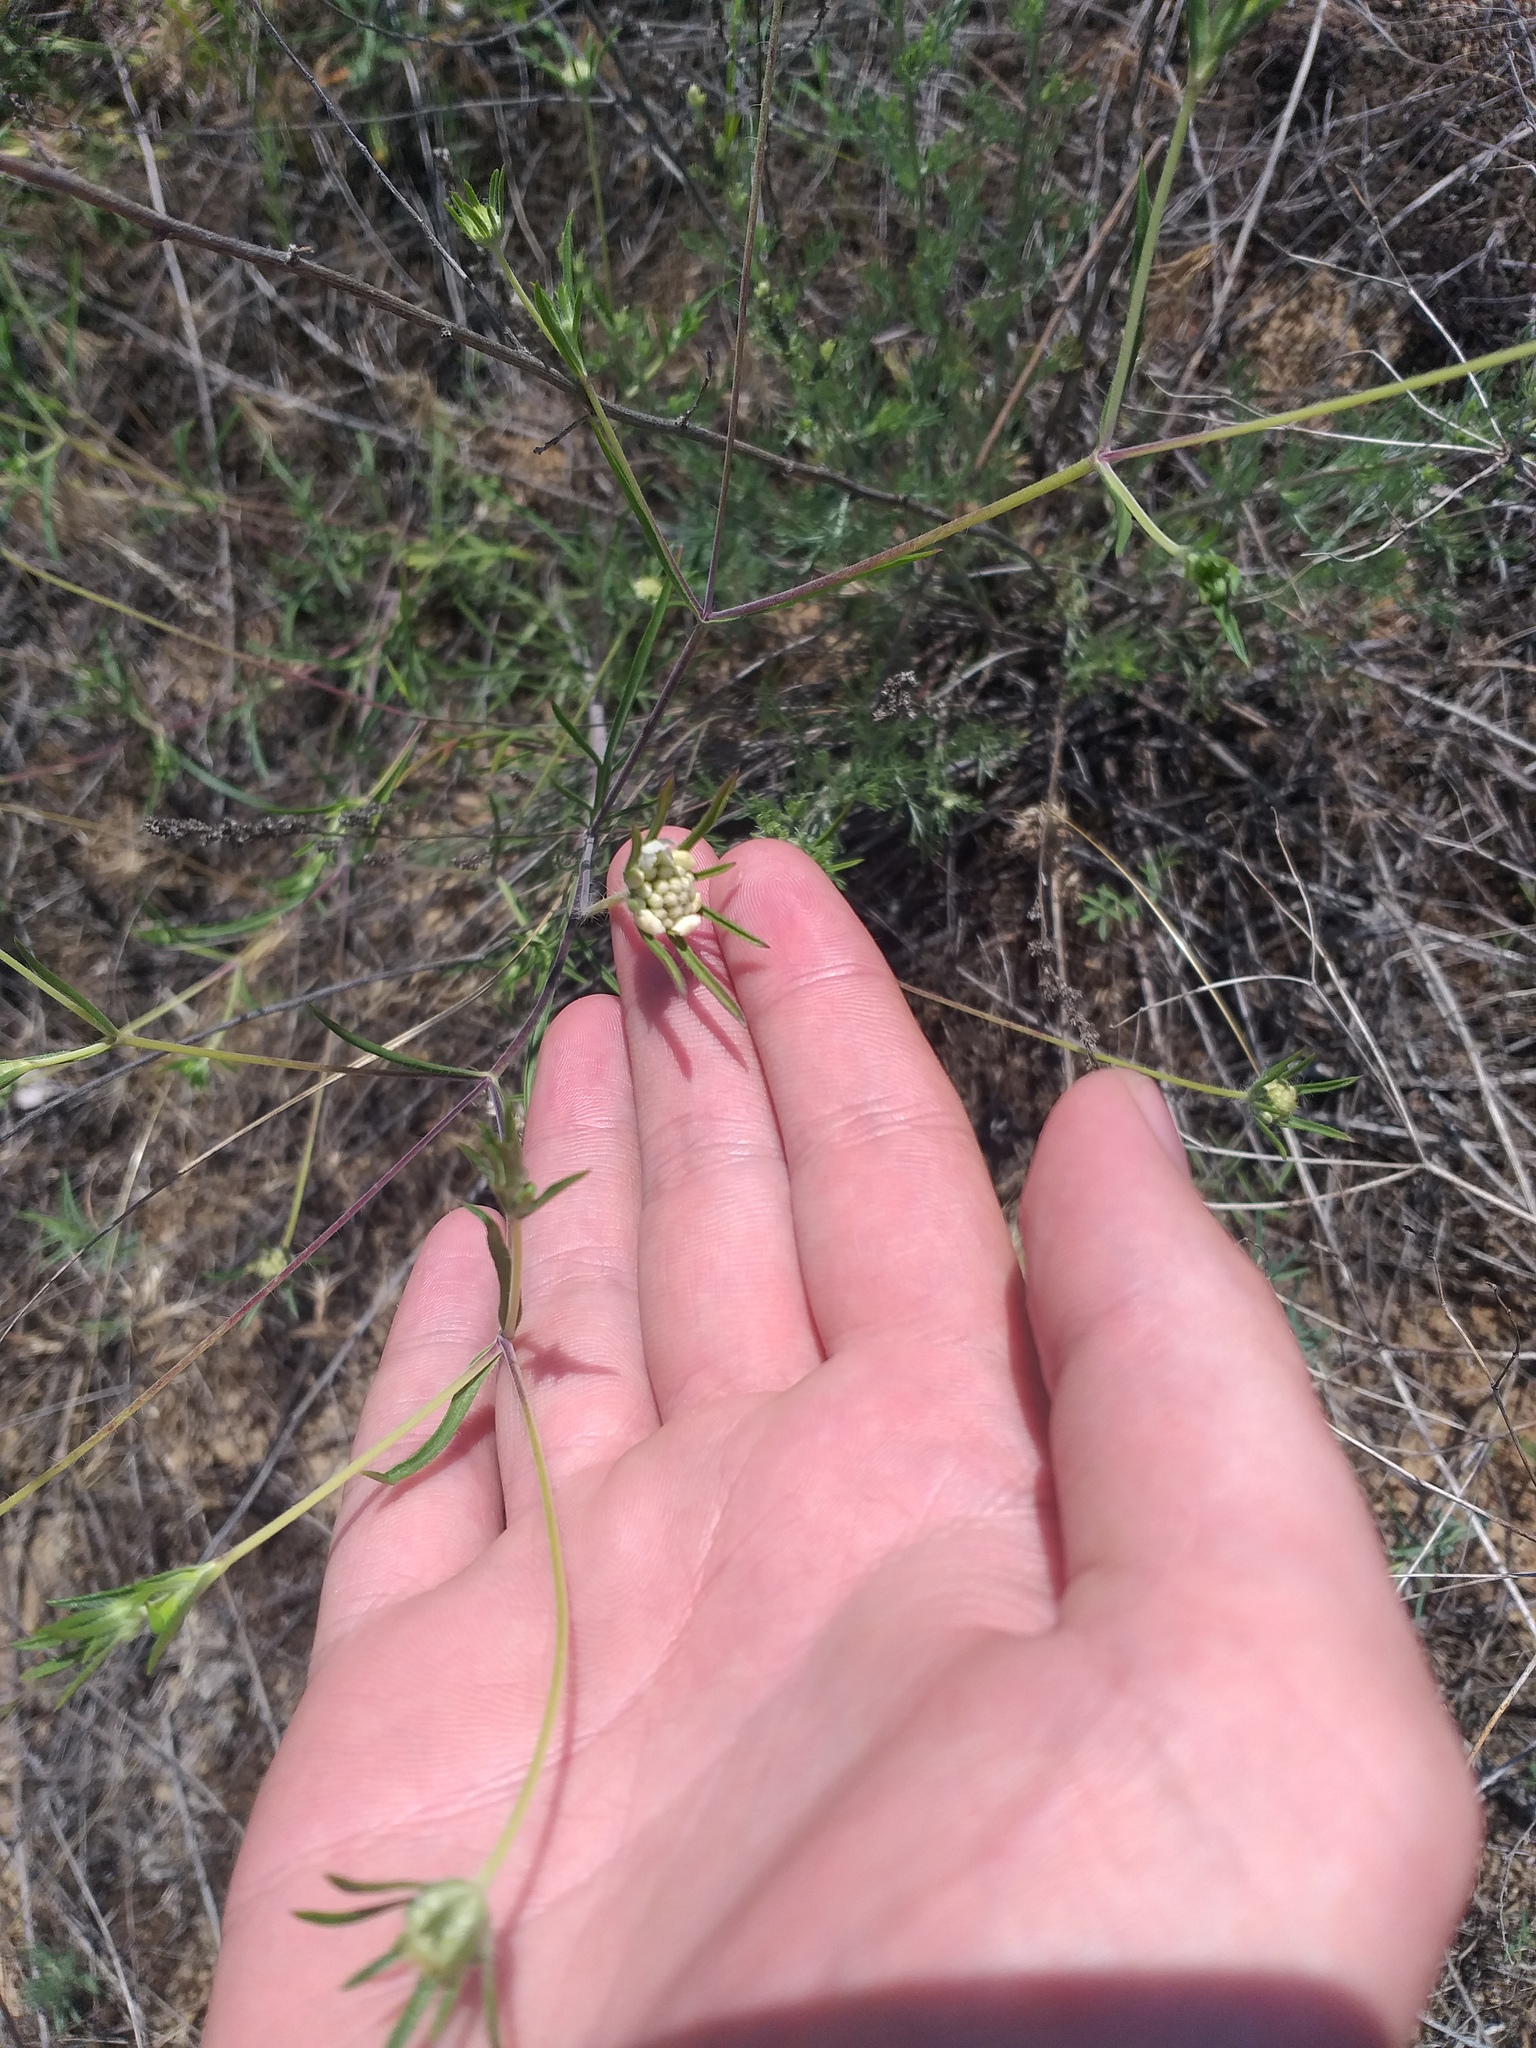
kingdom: Plantae
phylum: Tracheophyta
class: Magnoliopsida
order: Dipsacales
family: Caprifoliaceae
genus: Lomelosia
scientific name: Lomelosia argentea
